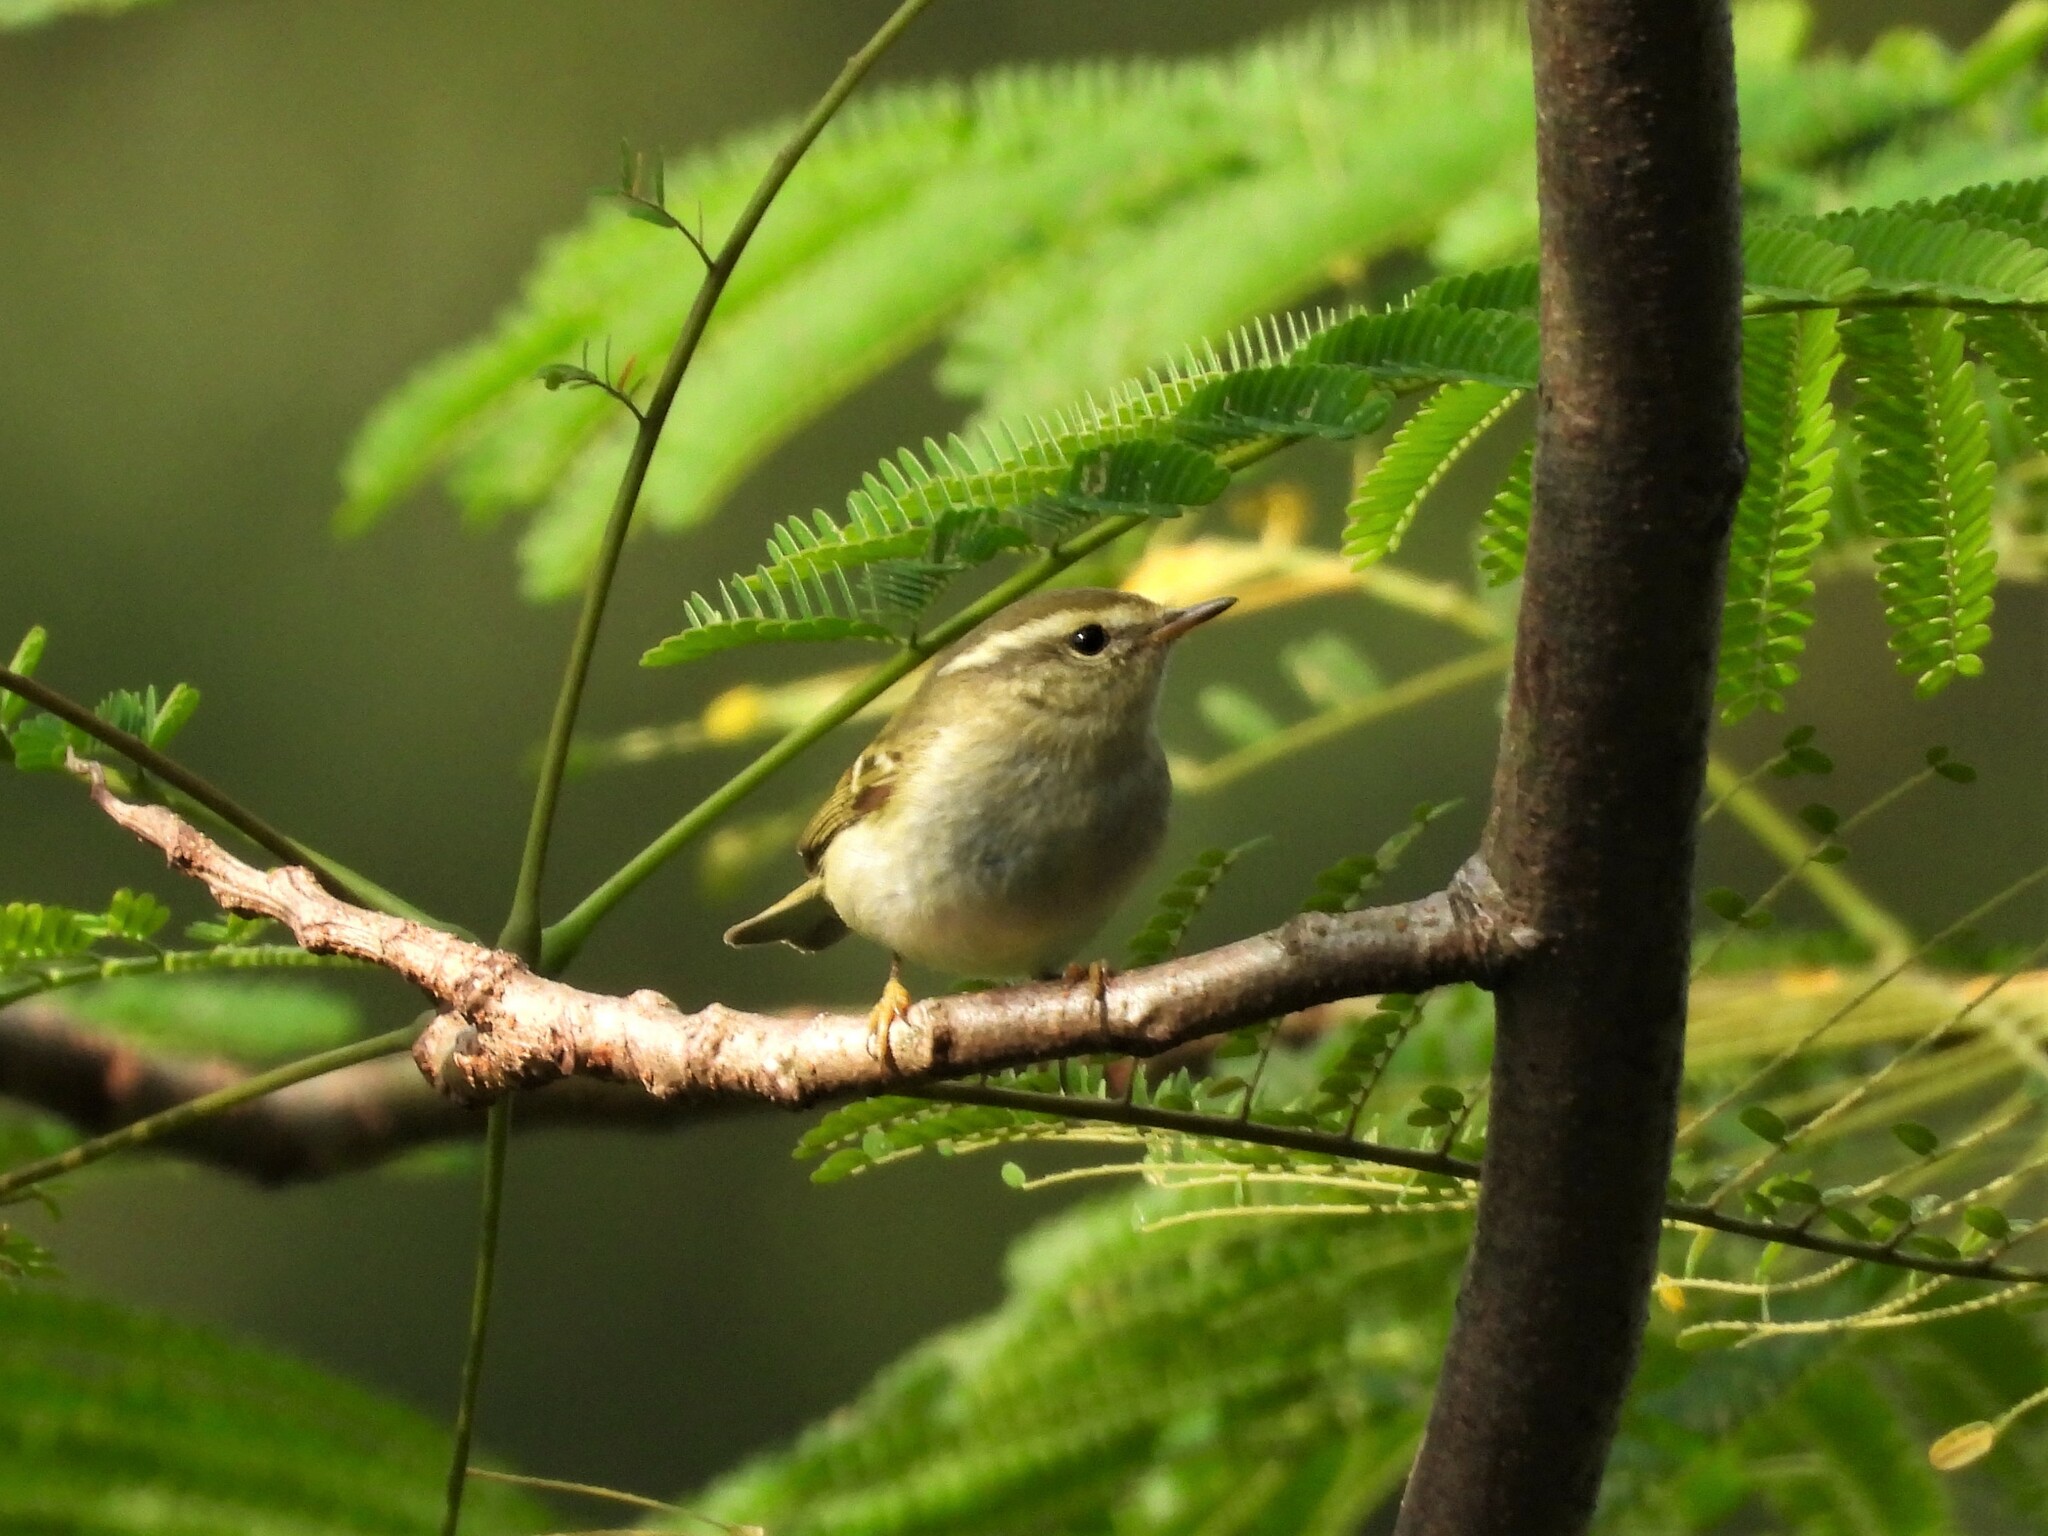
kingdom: Animalia
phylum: Chordata
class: Aves
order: Passeriformes
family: Phylloscopidae
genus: Phylloscopus
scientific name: Phylloscopus inornatus
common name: Yellow-browed warbler
